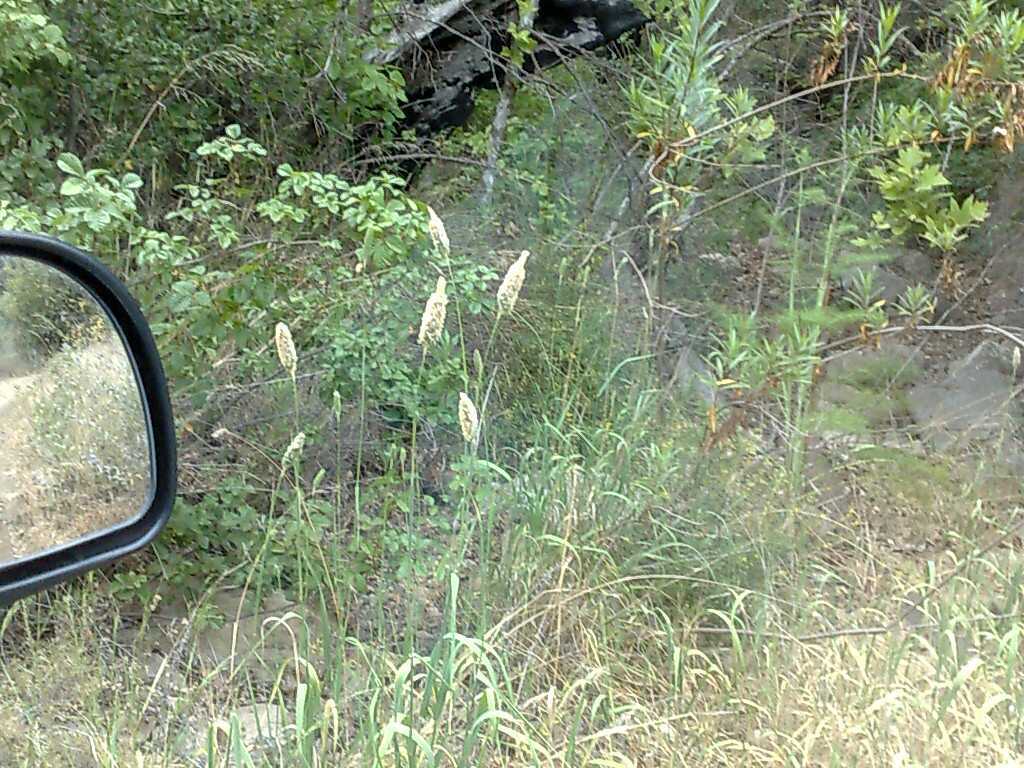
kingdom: Plantae
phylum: Tracheophyta
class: Magnoliopsida
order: Apiales
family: Apiaceae
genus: Foeniculum
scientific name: Foeniculum vulgare
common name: Fennel
